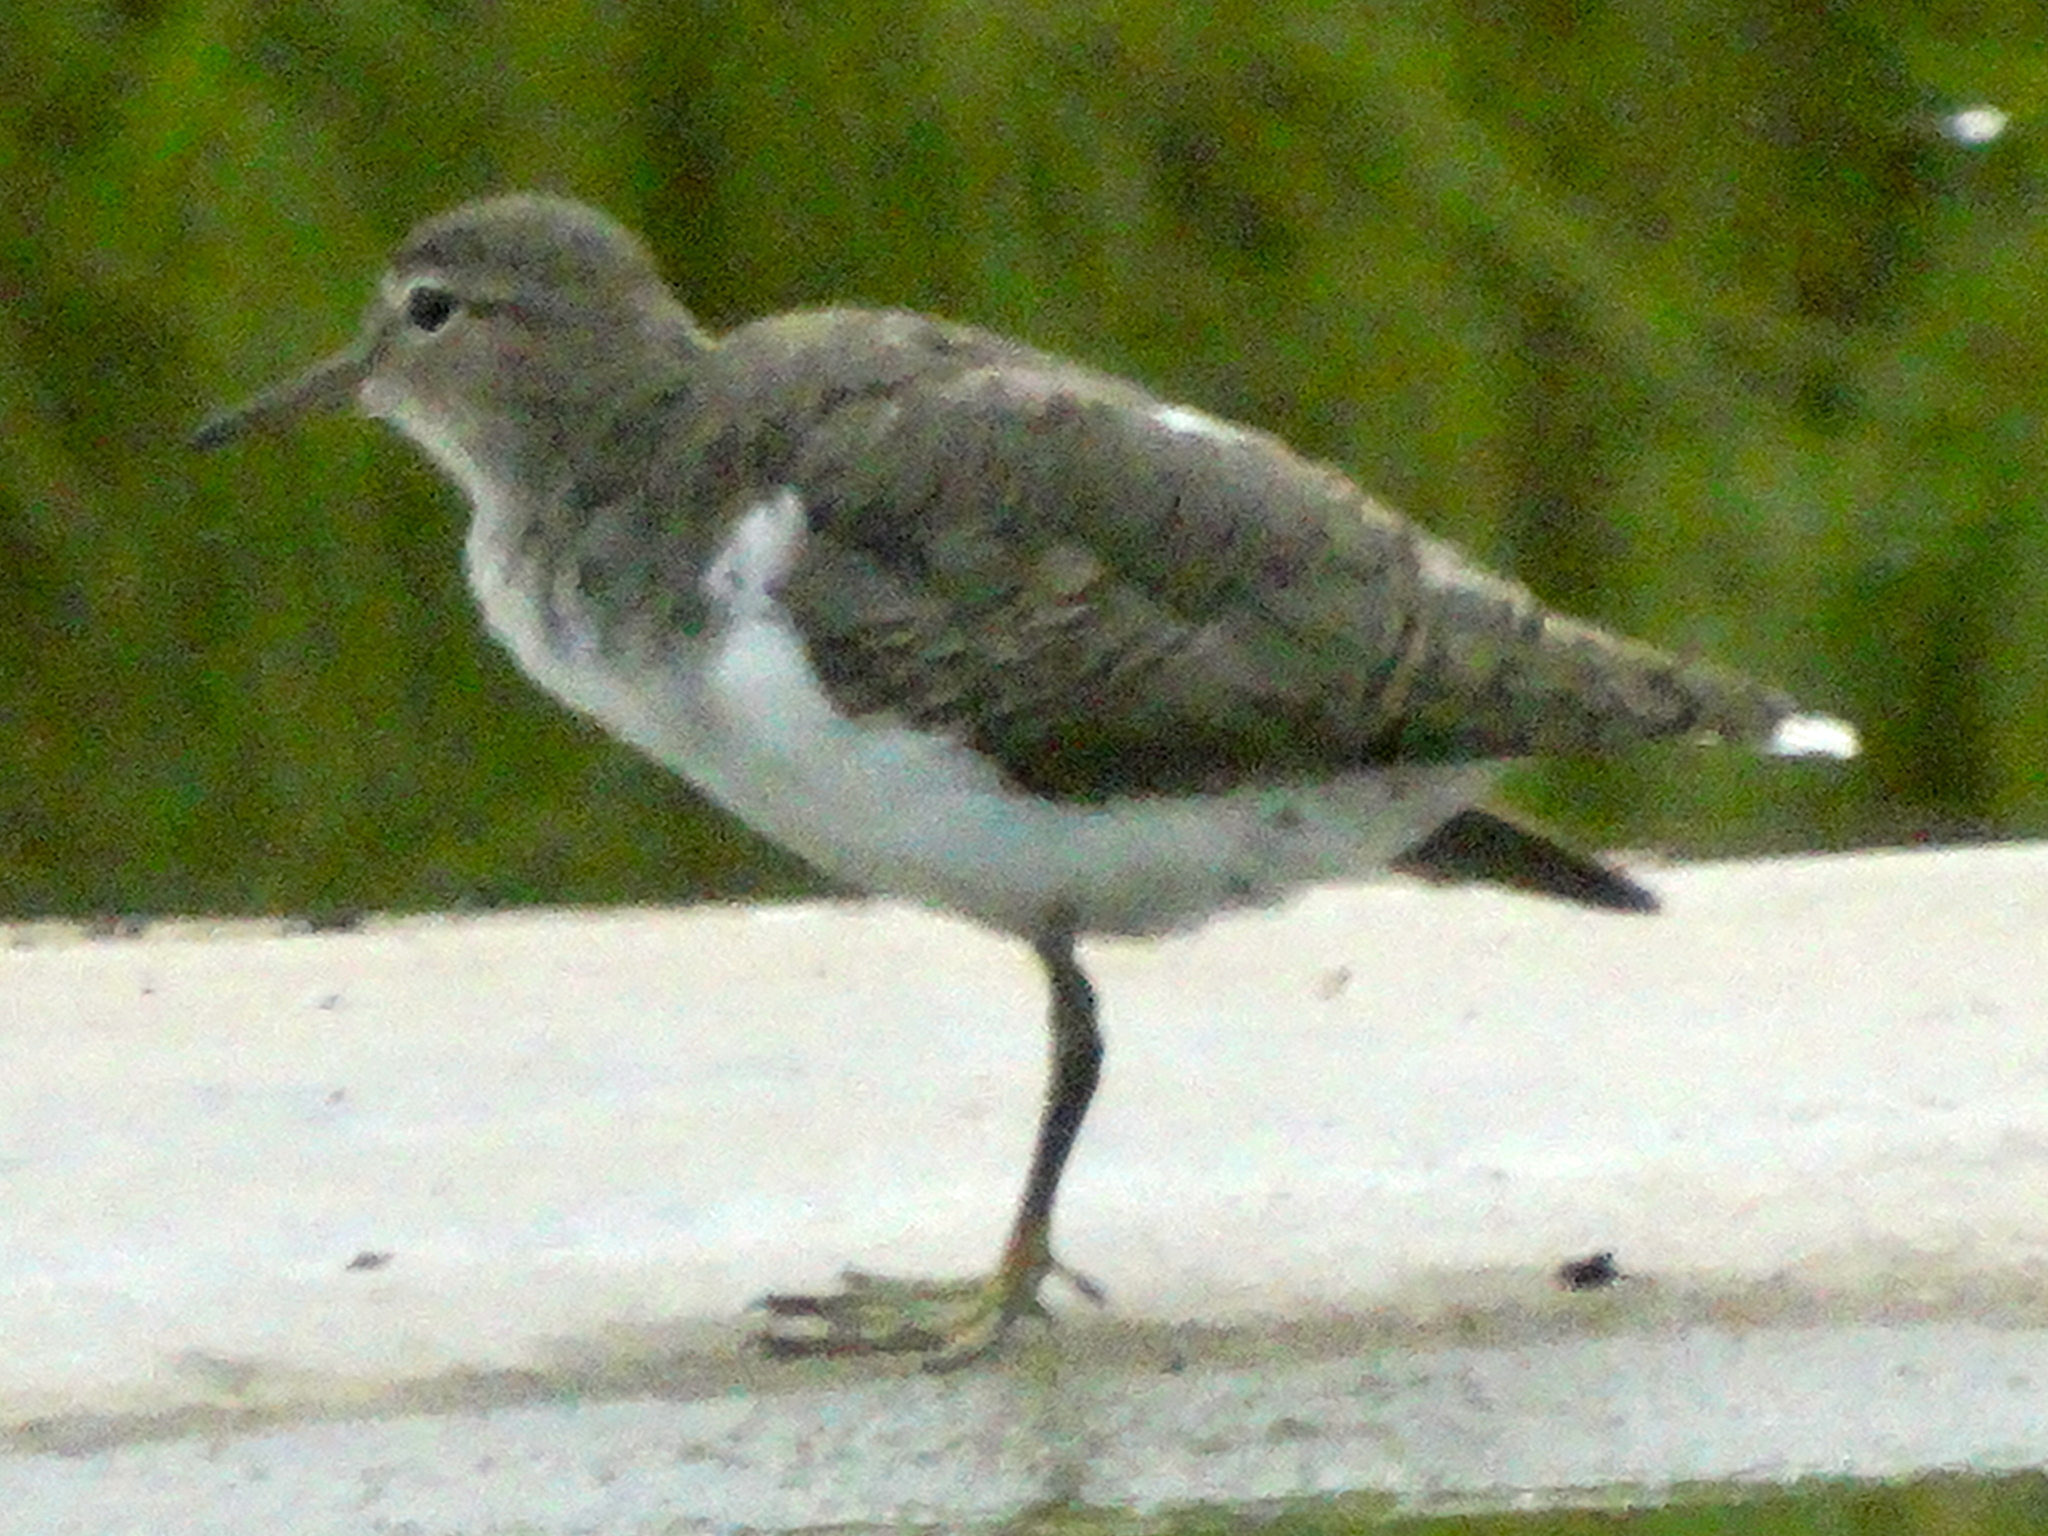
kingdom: Animalia
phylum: Chordata
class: Aves
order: Charadriiformes
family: Scolopacidae
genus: Actitis
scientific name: Actitis macularius
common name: Spotted sandpiper
